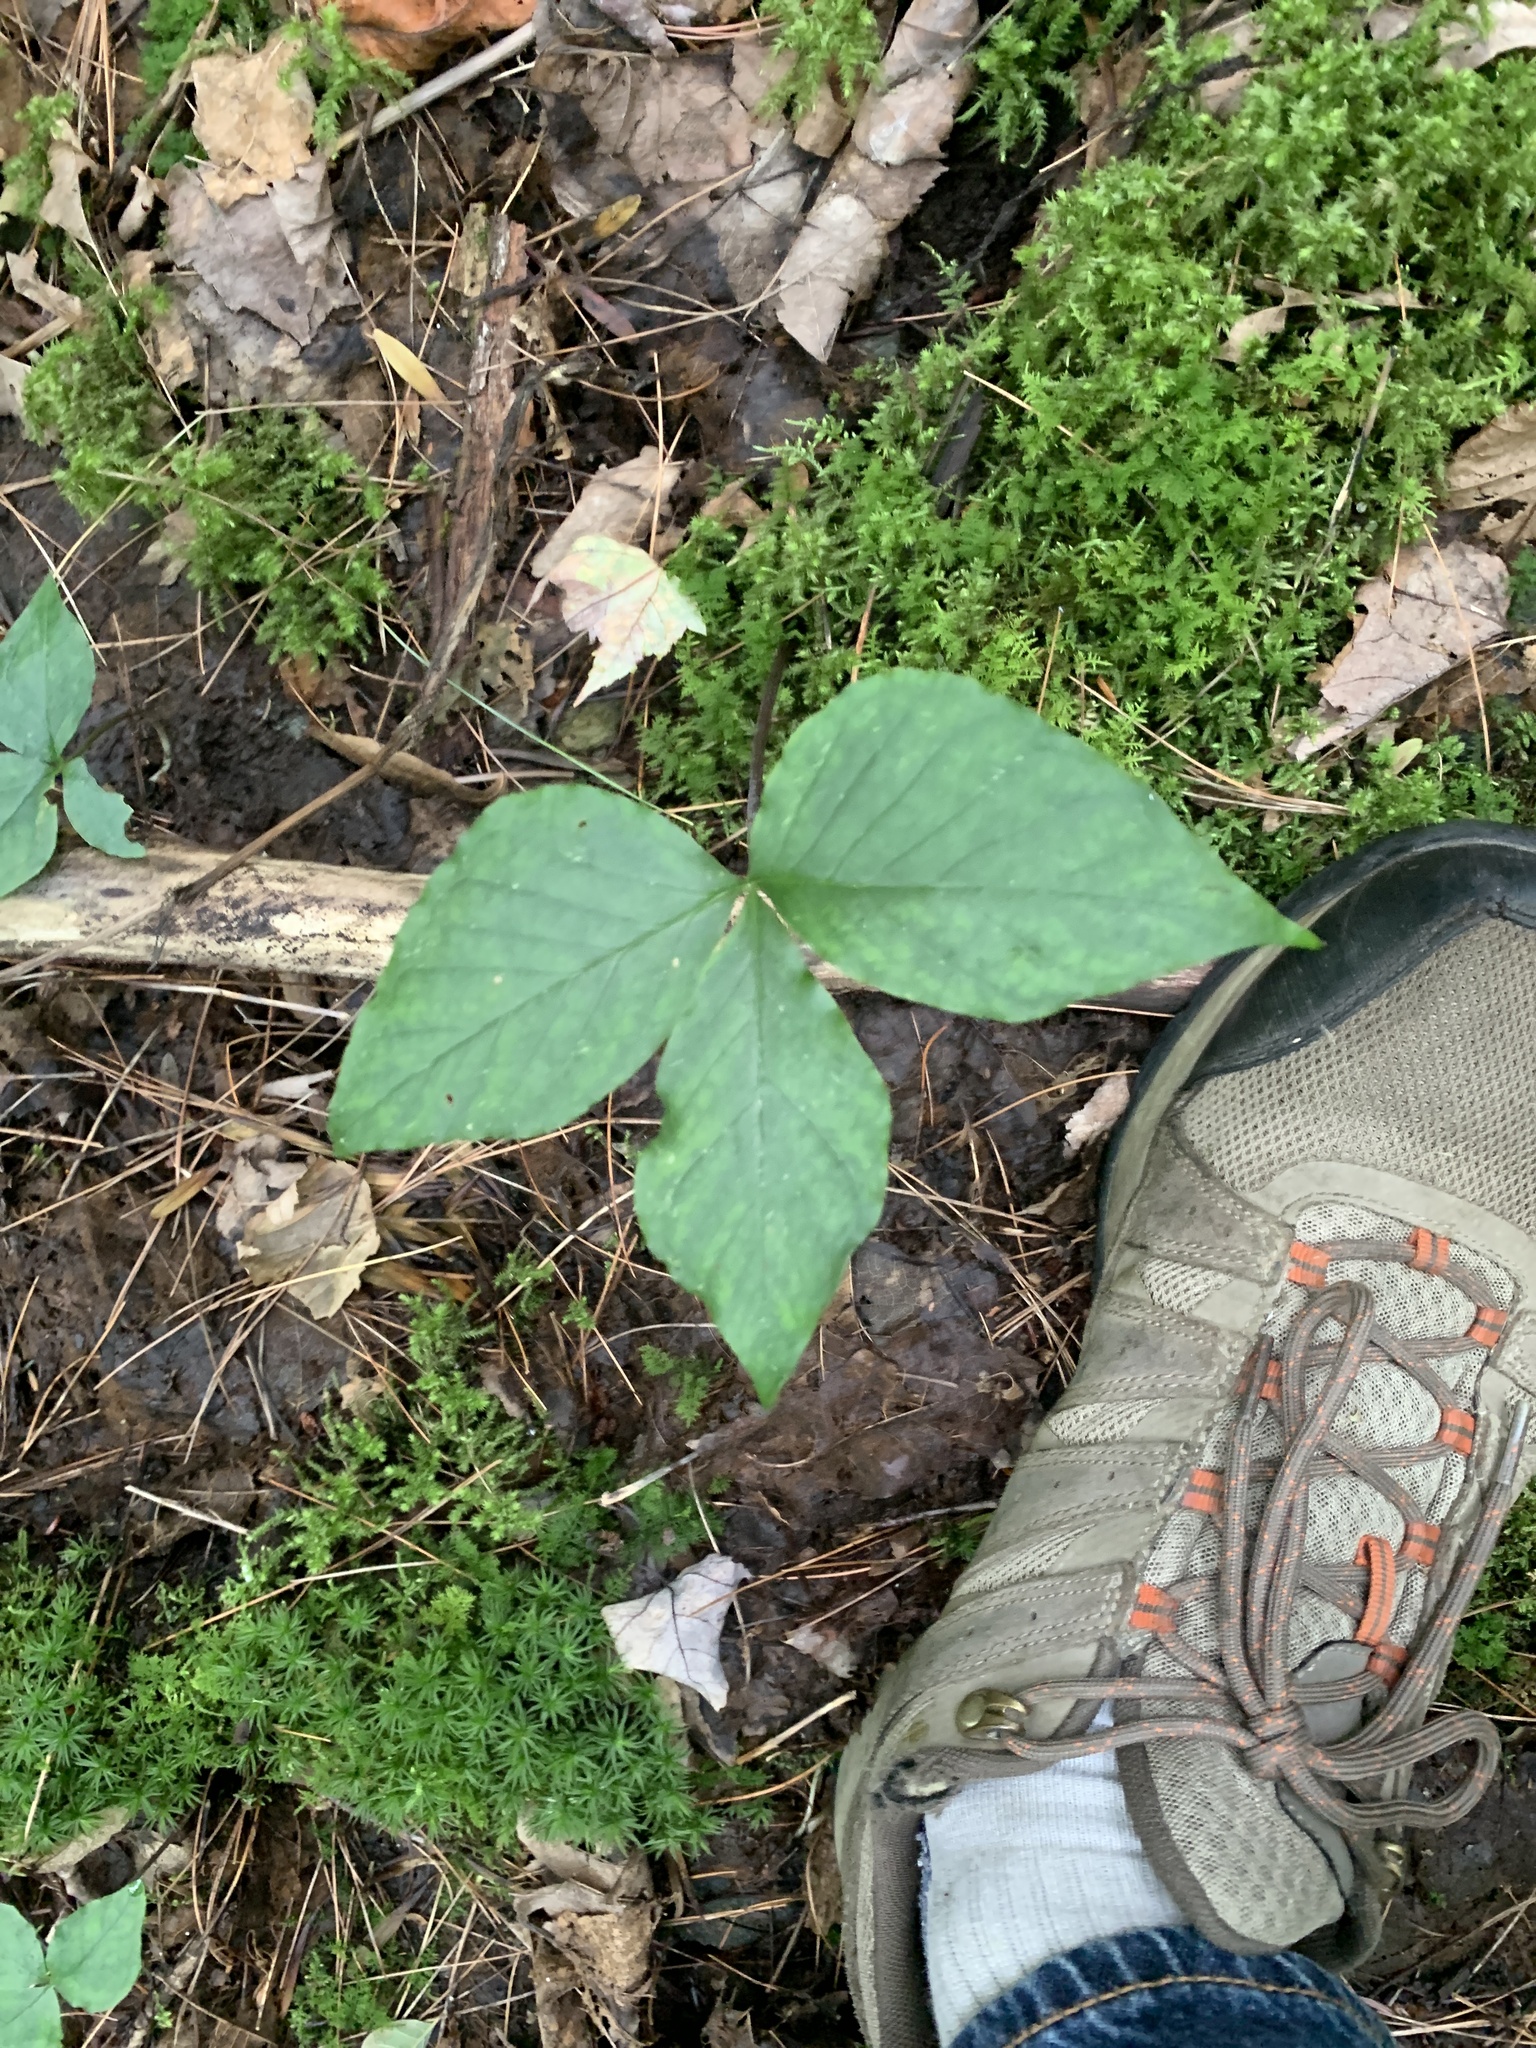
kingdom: Plantae
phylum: Tracheophyta
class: Liliopsida
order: Alismatales
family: Araceae
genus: Arisaema
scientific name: Arisaema triphyllum
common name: Jack-in-the-pulpit
